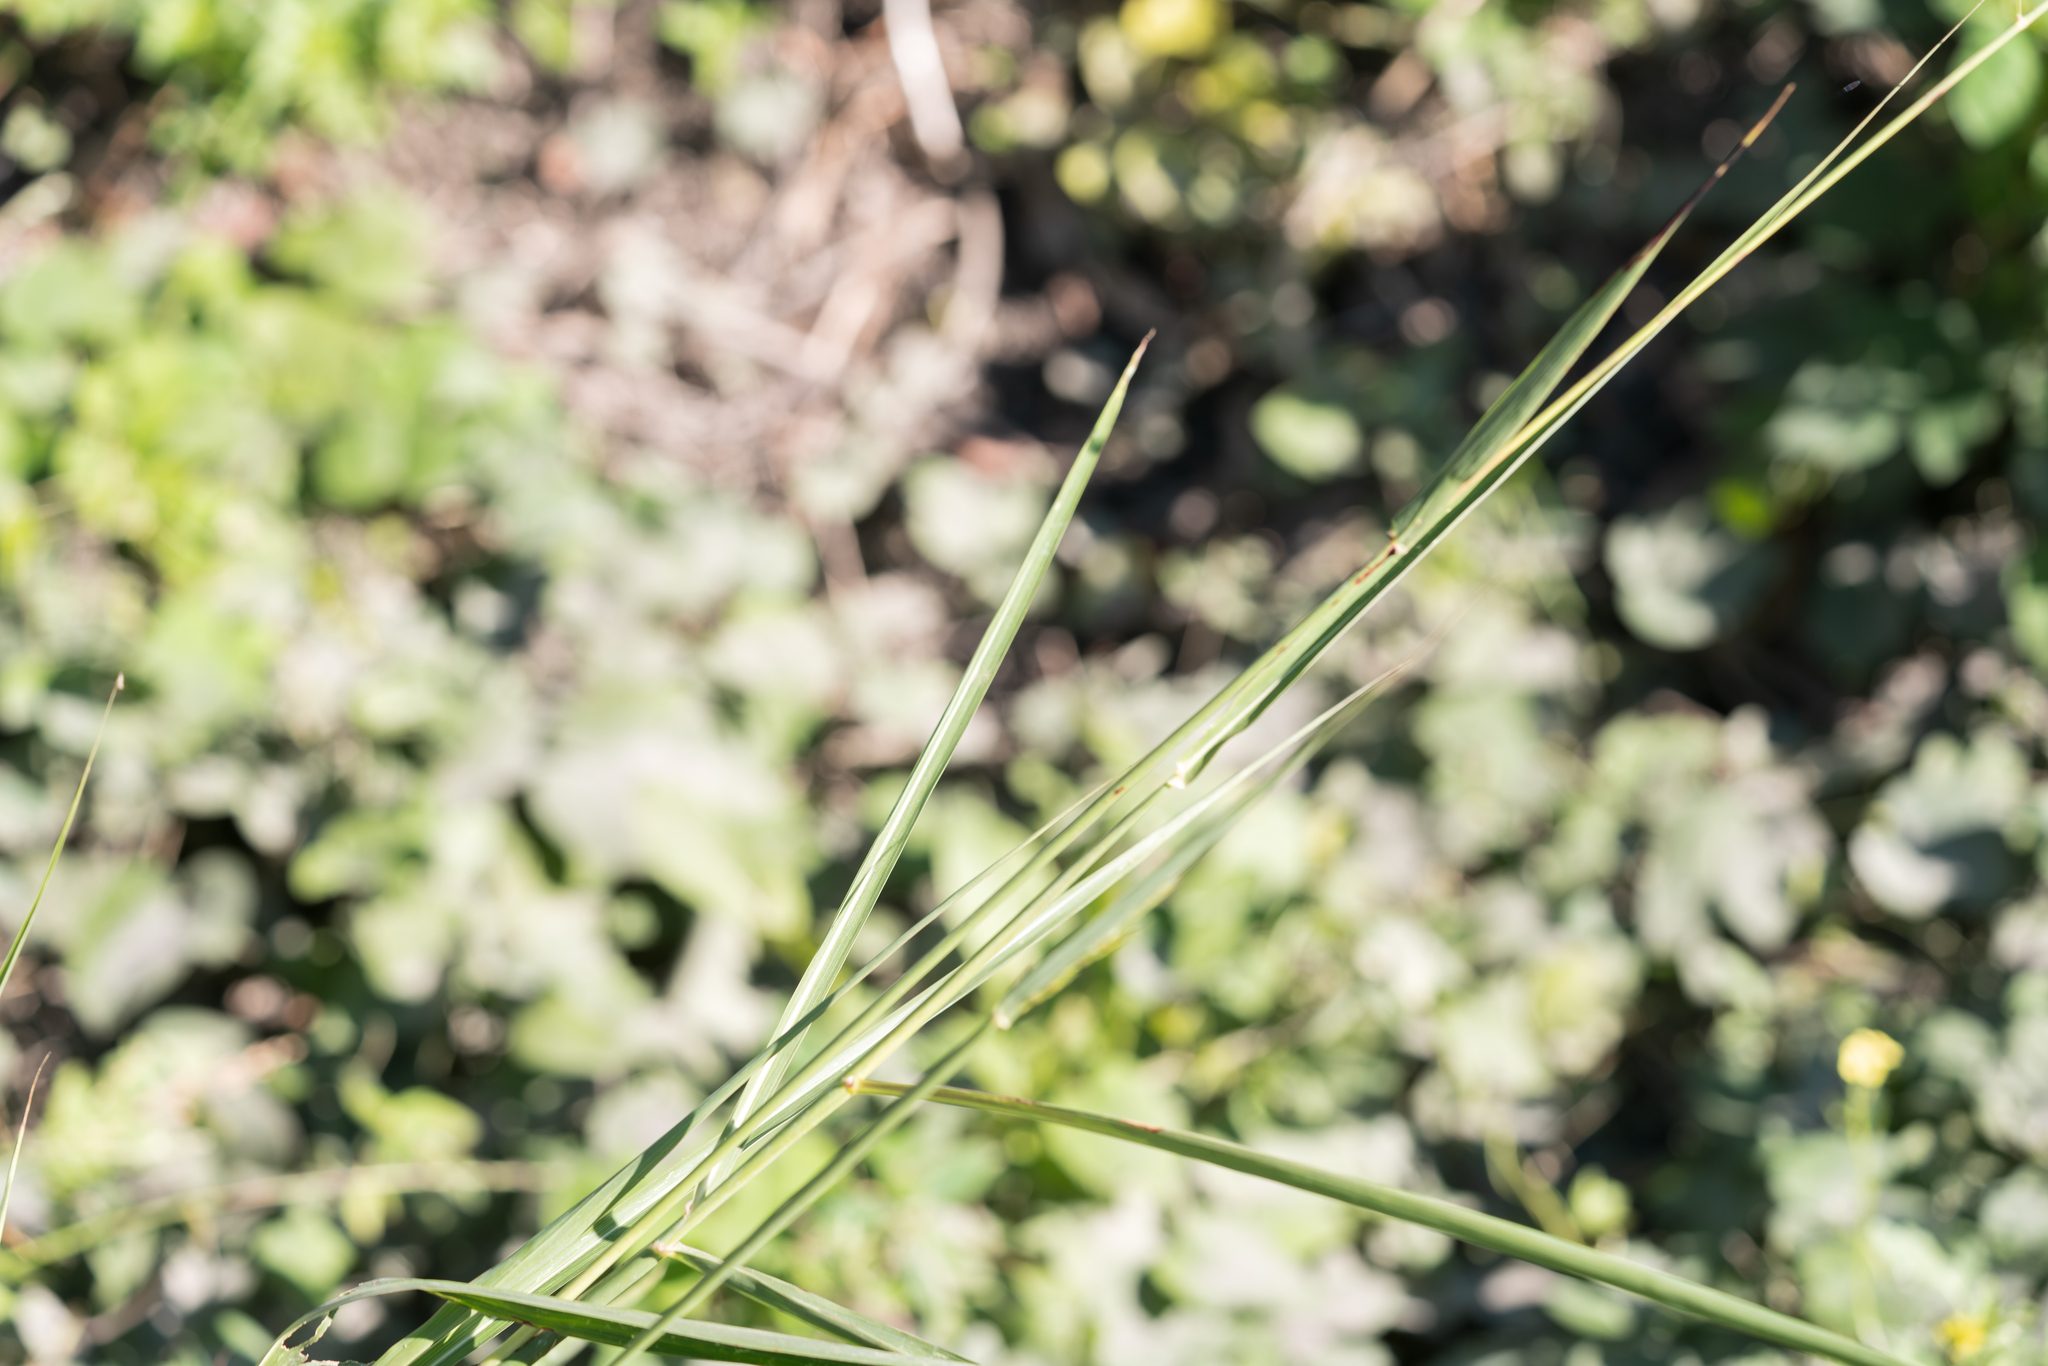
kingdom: Plantae
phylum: Tracheophyta
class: Liliopsida
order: Poales
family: Poaceae
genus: Sorghum
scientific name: Sorghum halepense
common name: Johnson-grass
